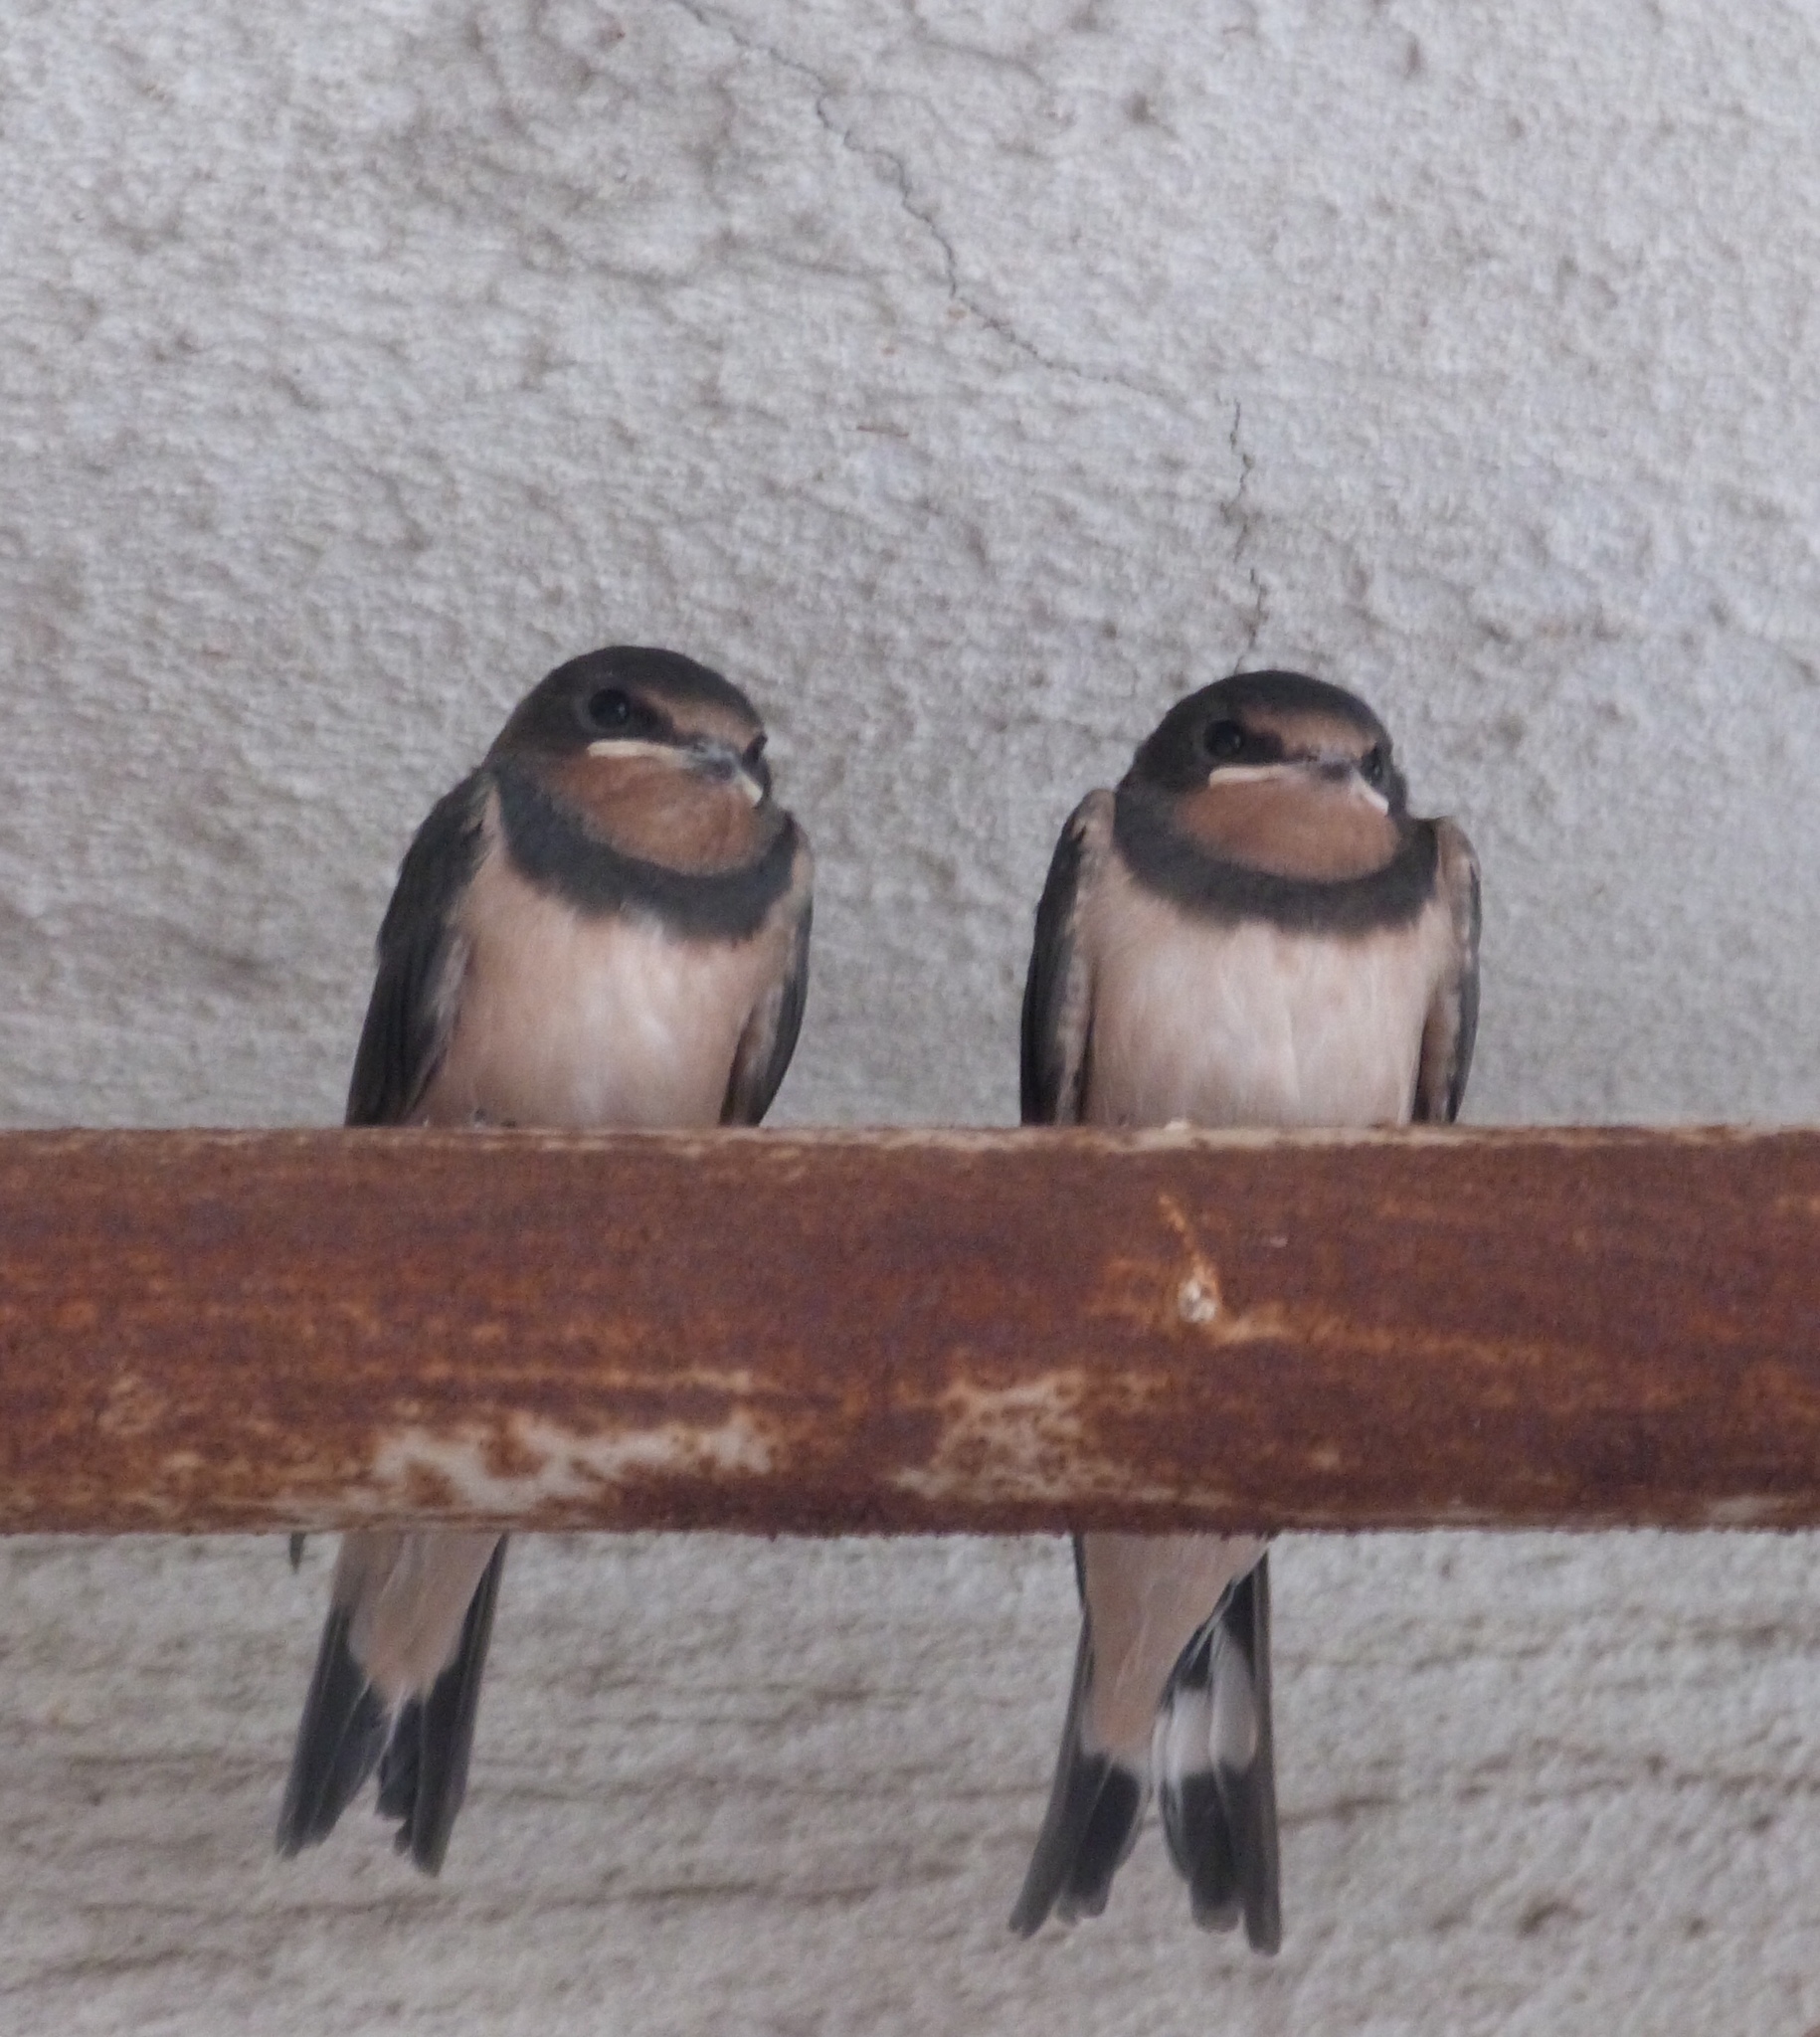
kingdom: Animalia
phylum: Chordata
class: Aves
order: Passeriformes
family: Hirundinidae
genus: Hirundo
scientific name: Hirundo rustica
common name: Barn swallow
